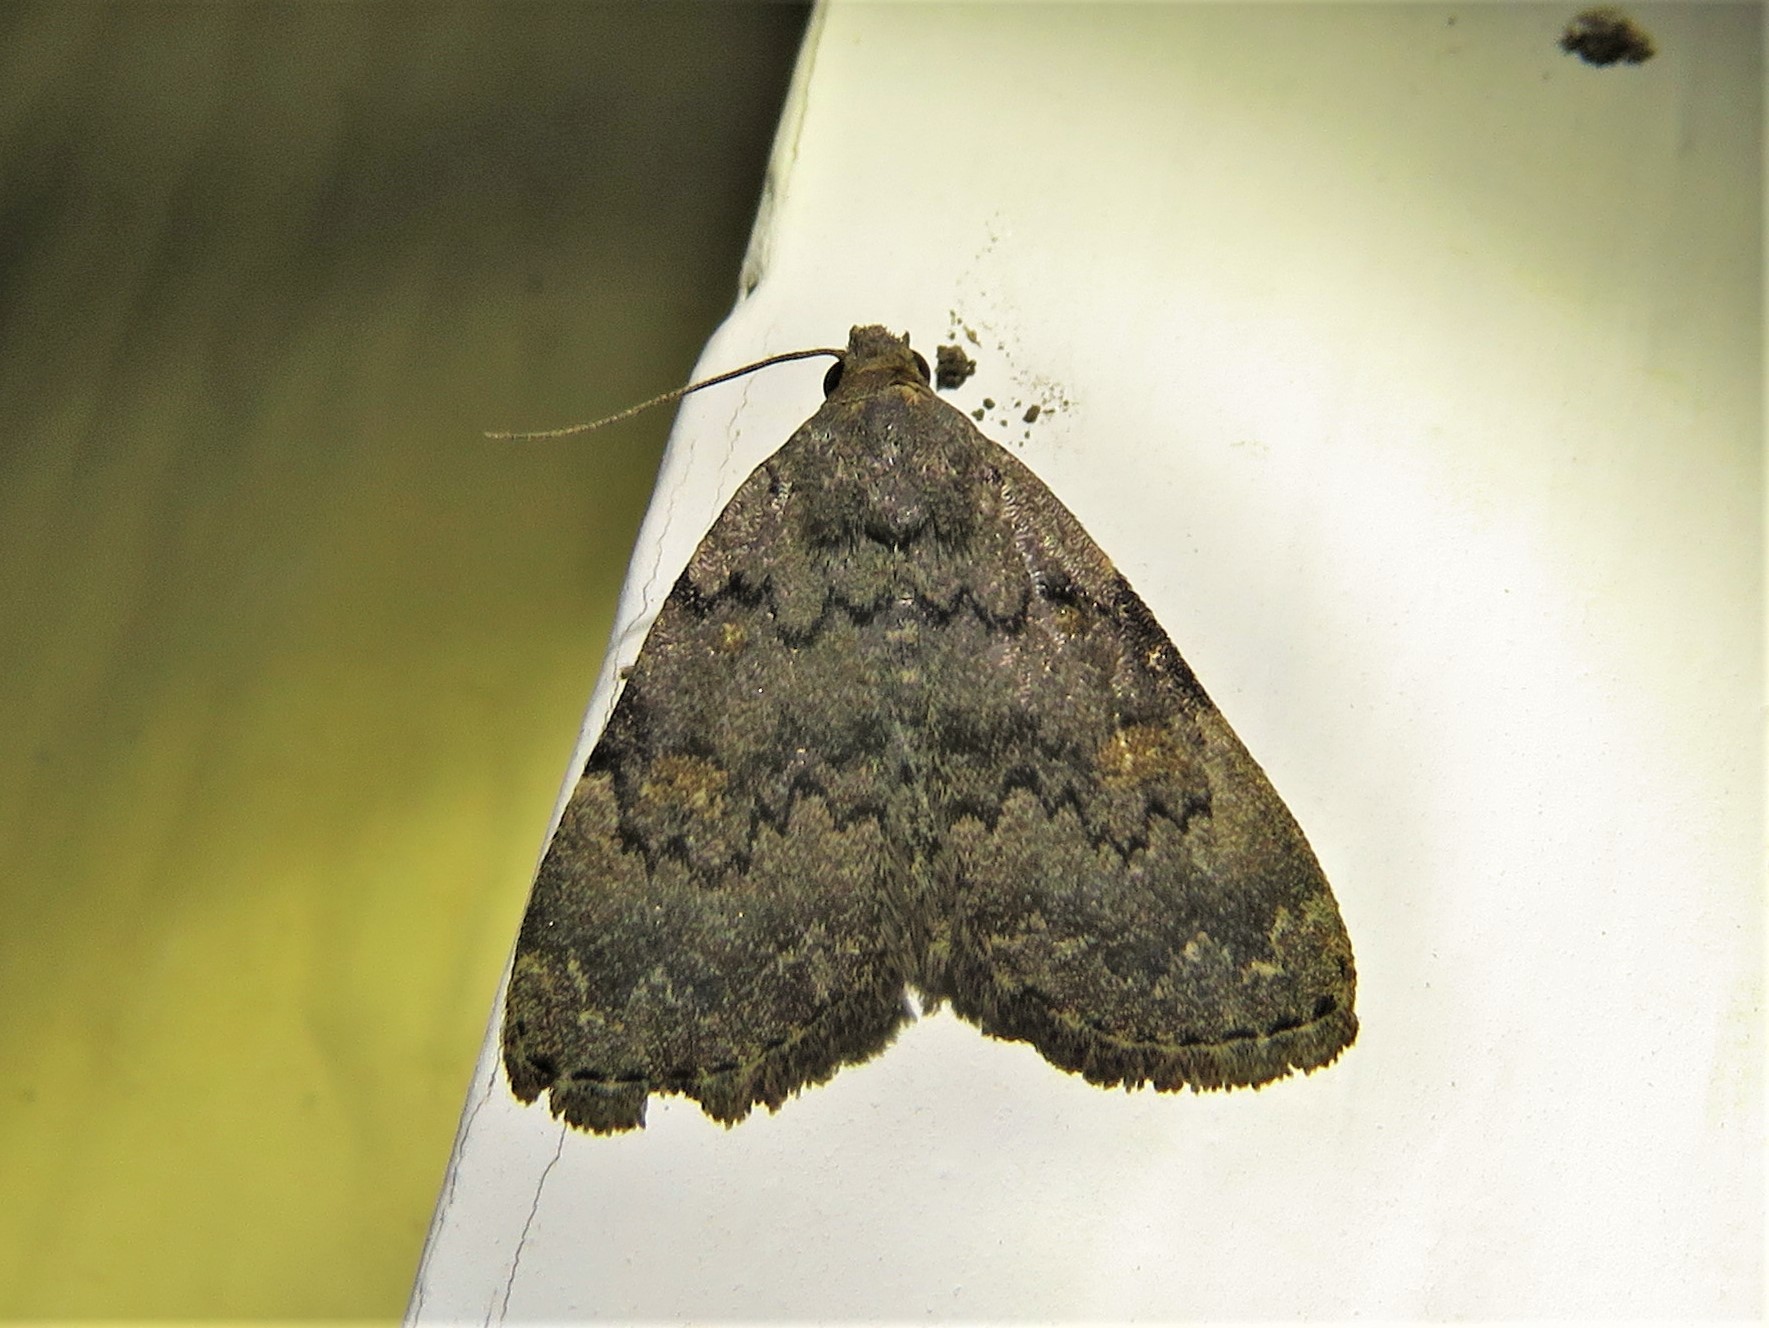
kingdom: Animalia
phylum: Arthropoda
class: Insecta
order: Lepidoptera
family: Erebidae
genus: Idia
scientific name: Idia aemula
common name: Common idia moth
